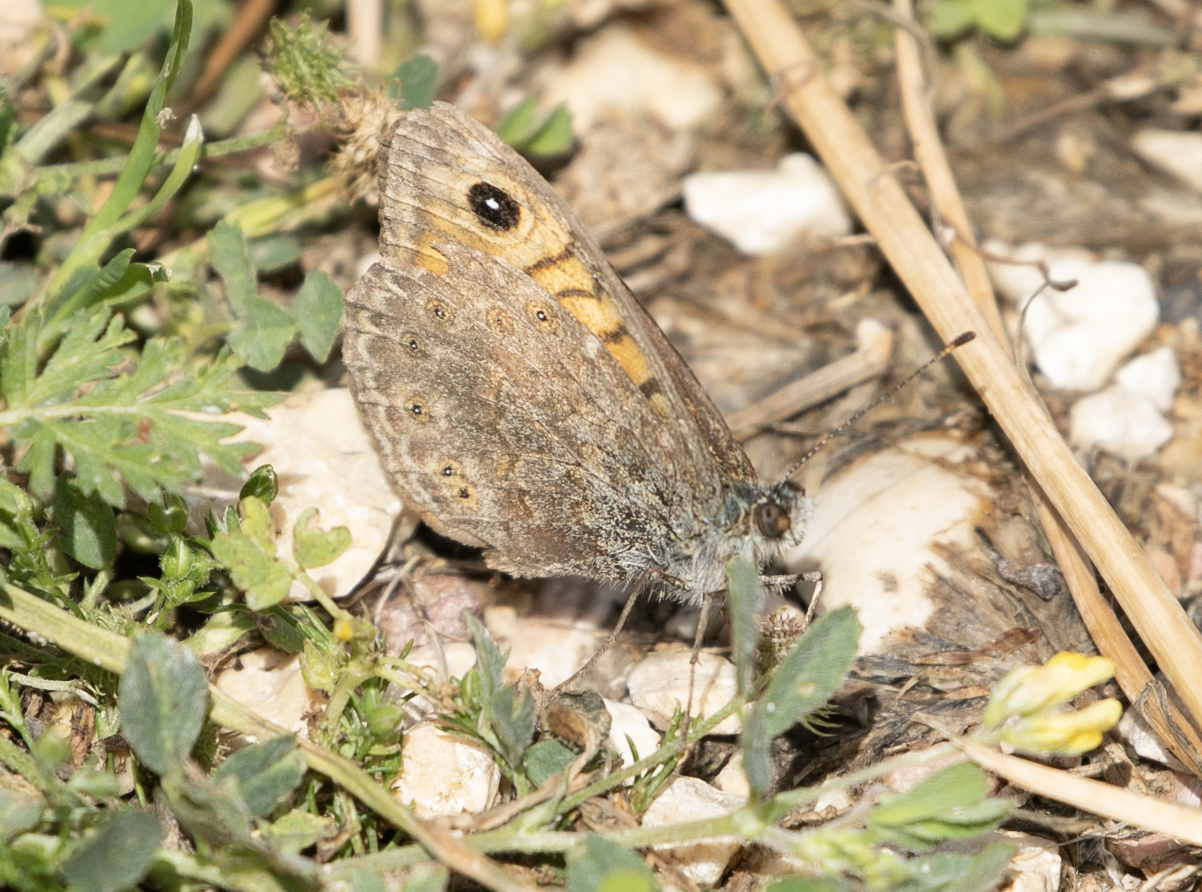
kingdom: Animalia
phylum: Arthropoda
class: Insecta
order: Lepidoptera
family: Nymphalidae
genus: Pararge
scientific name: Pararge Lasiommata megera
